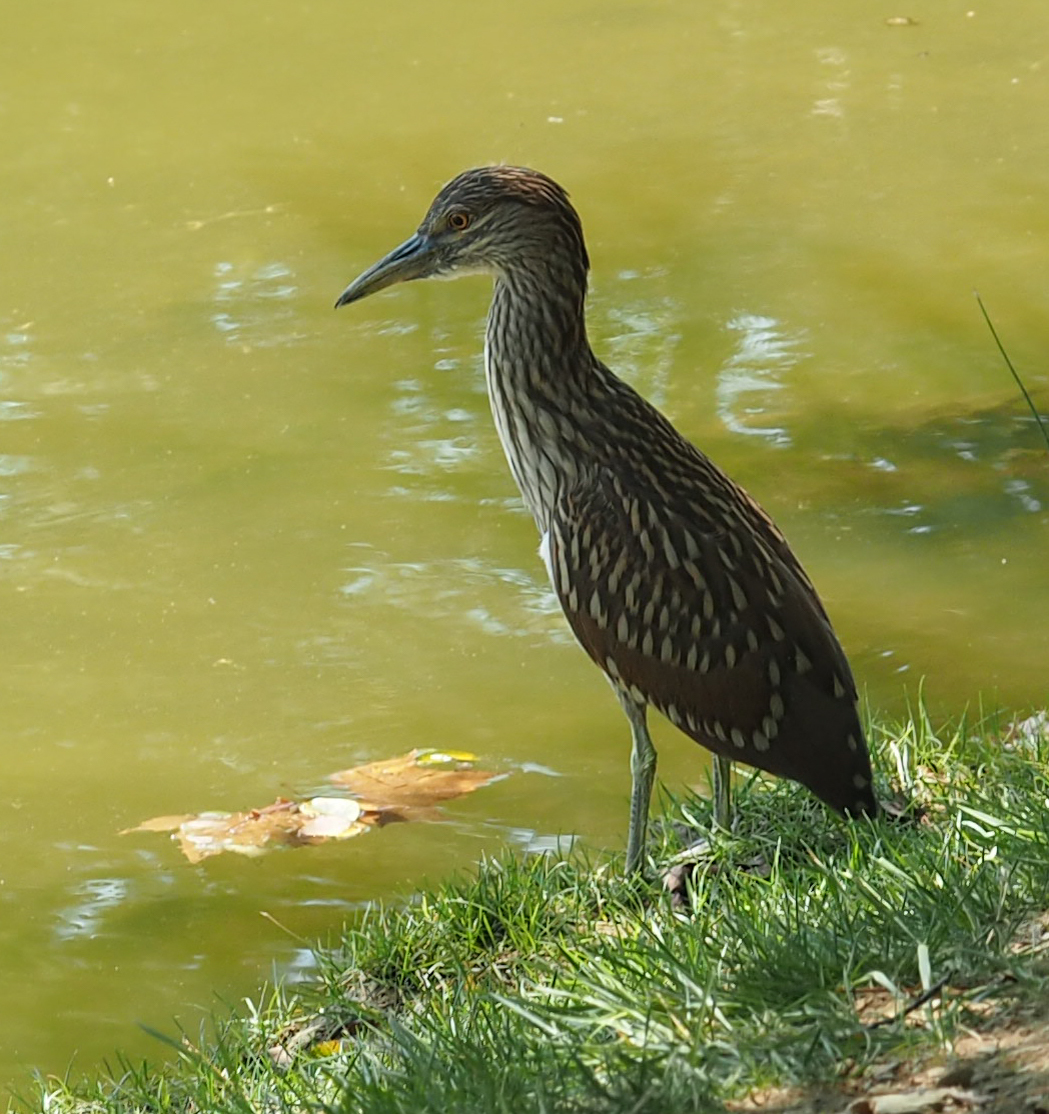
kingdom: Animalia
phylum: Chordata
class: Aves
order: Pelecaniformes
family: Ardeidae
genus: Nycticorax
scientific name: Nycticorax nycticorax
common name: Black-crowned night heron
